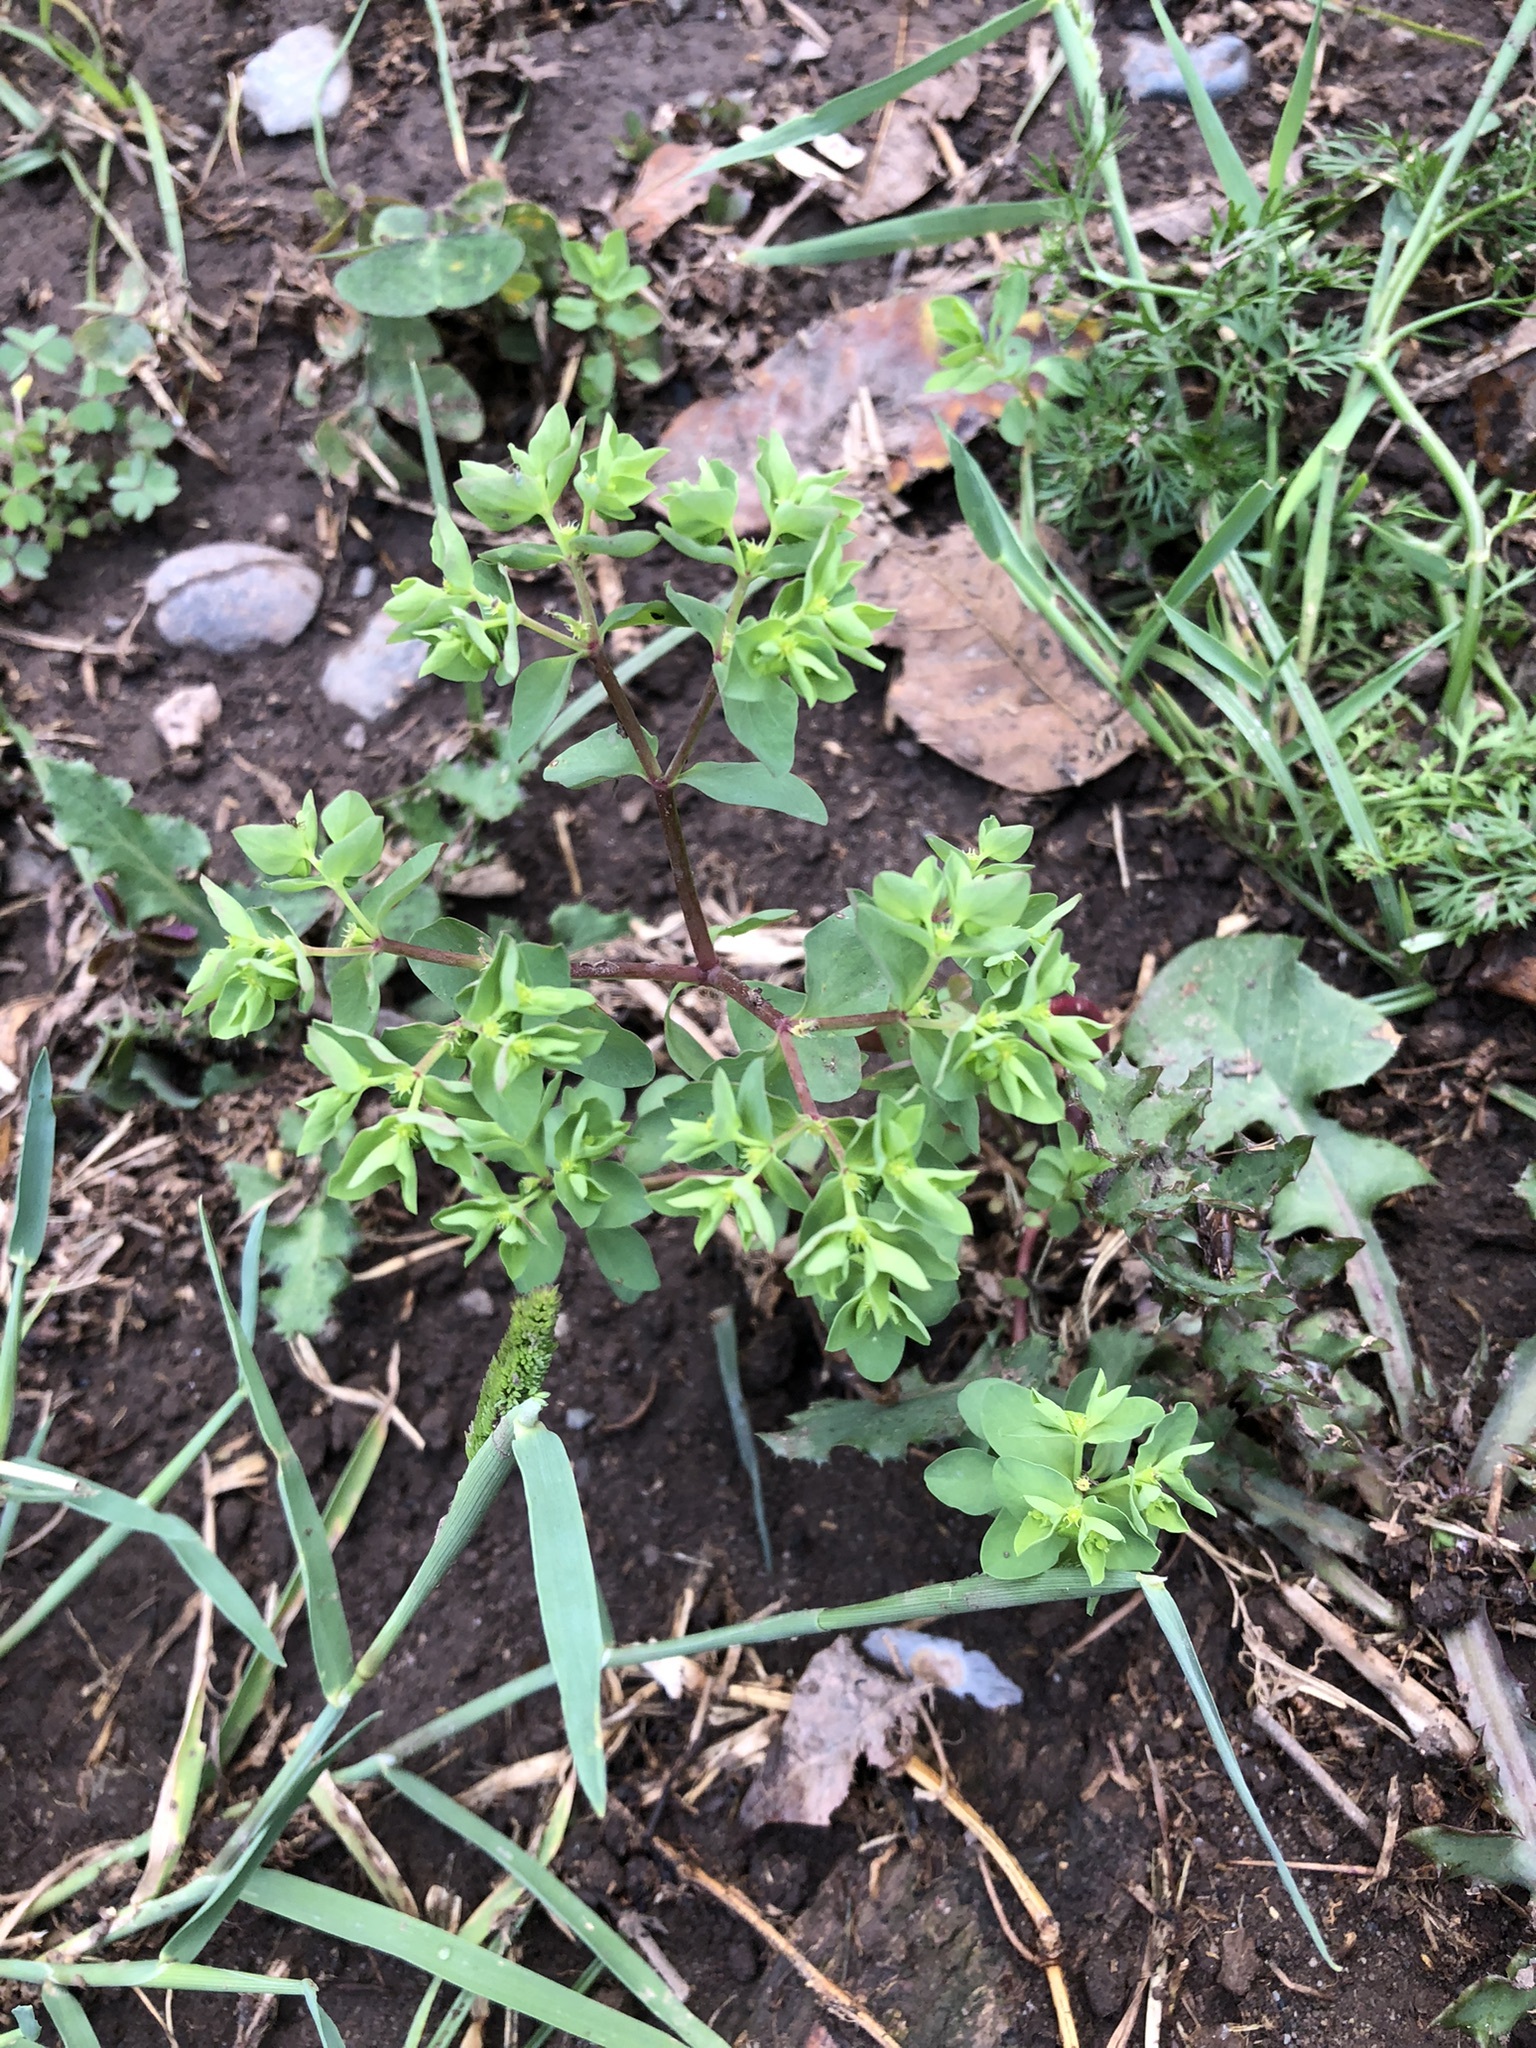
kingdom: Plantae
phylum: Tracheophyta
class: Magnoliopsida
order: Malpighiales
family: Euphorbiaceae
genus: Euphorbia
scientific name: Euphorbia peplus
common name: Petty spurge
